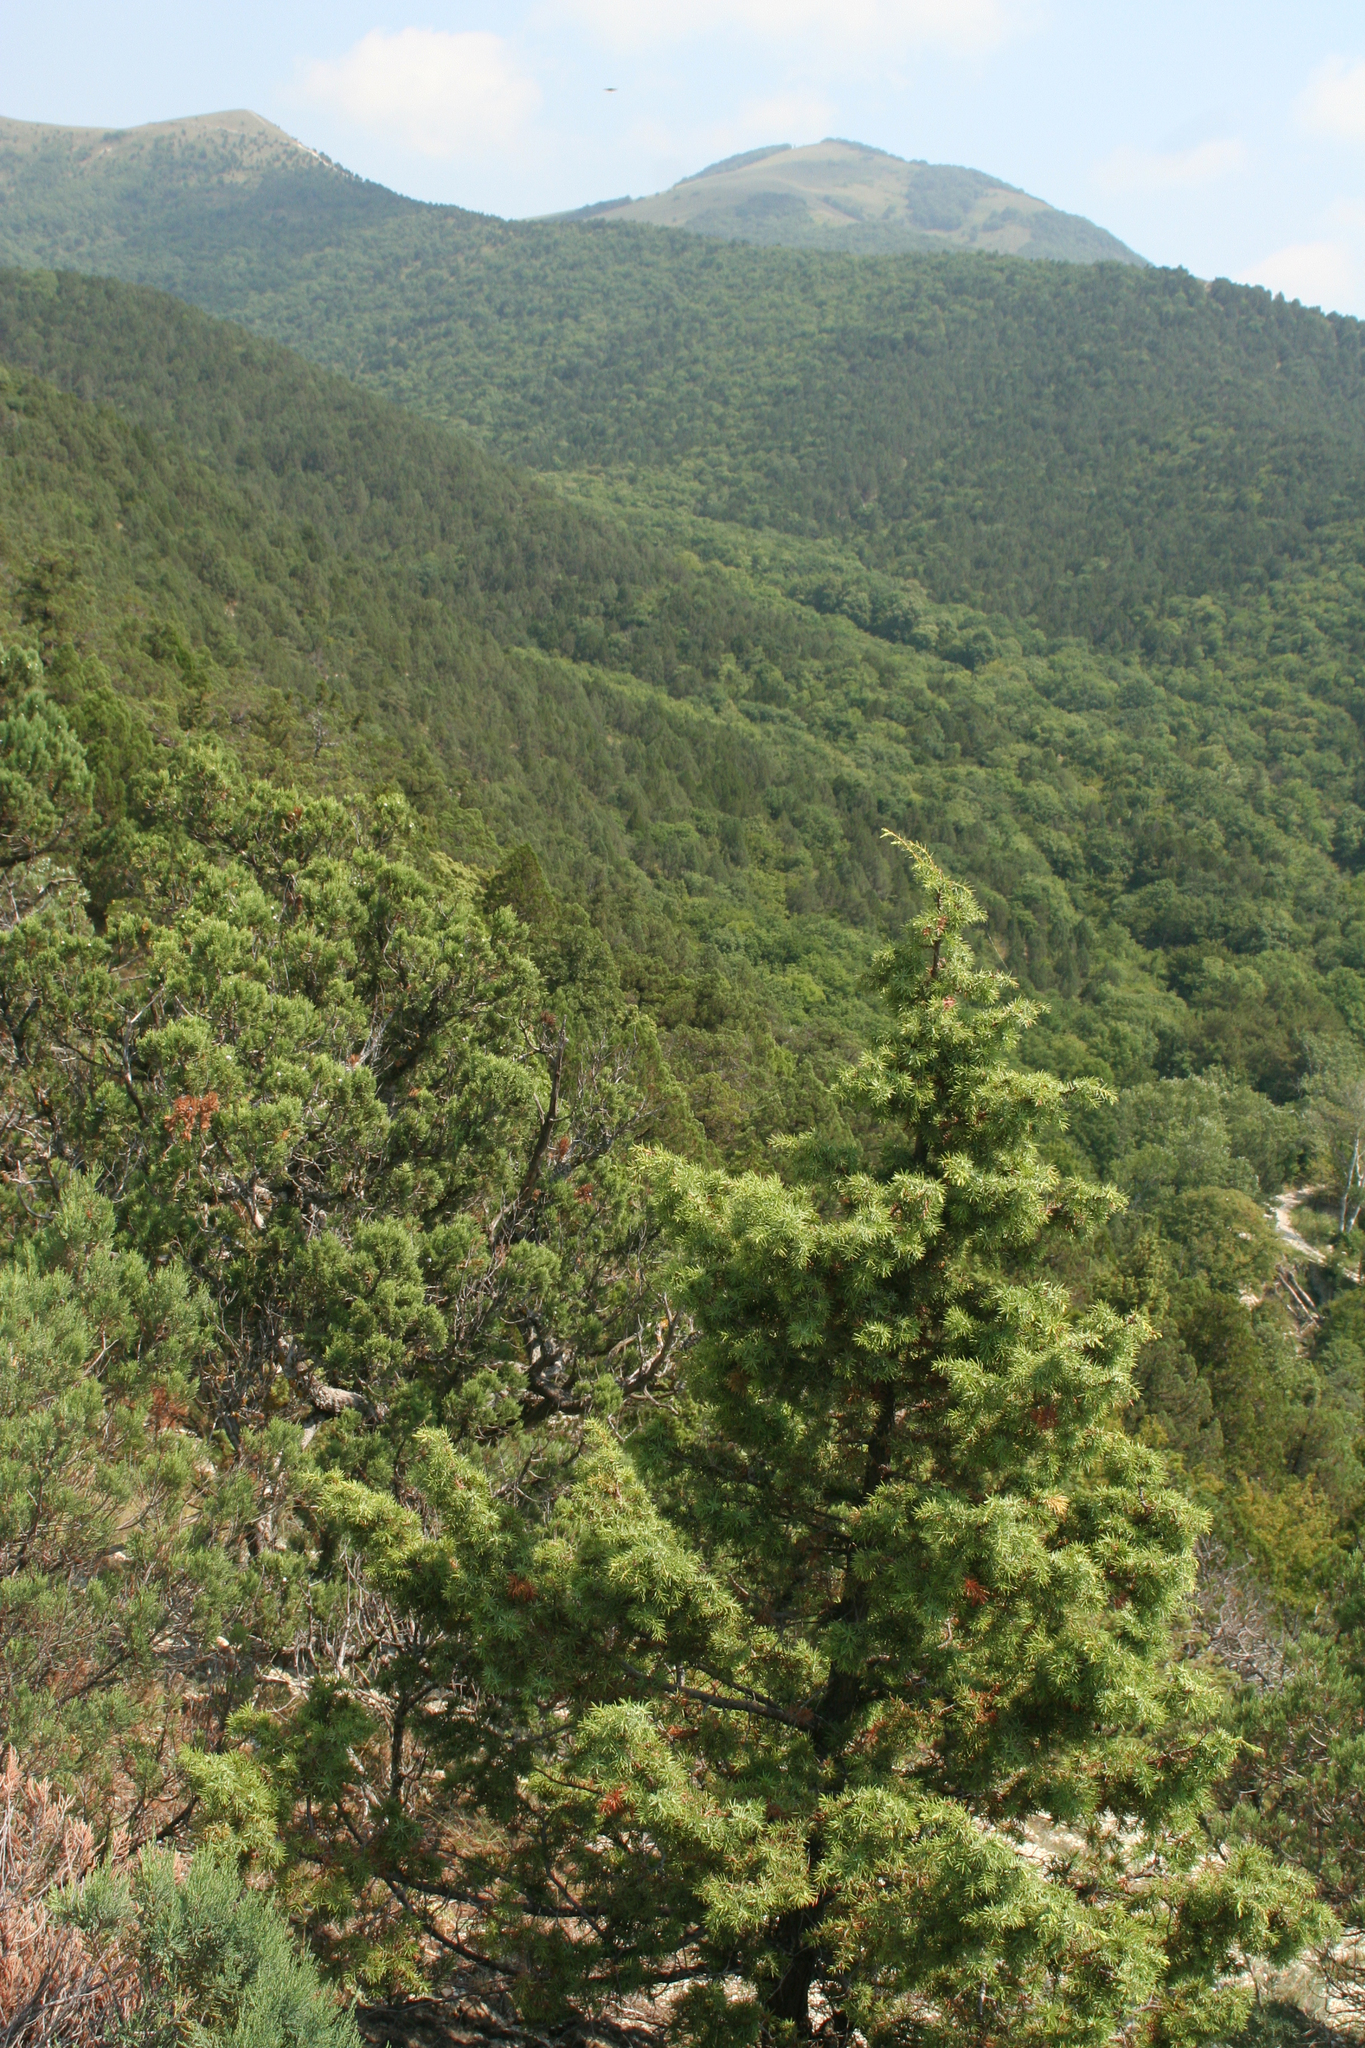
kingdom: Plantae
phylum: Tracheophyta
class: Pinopsida
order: Pinales
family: Cupressaceae
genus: Juniperus
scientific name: Juniperus oxycedrus
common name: Prickly juniper
